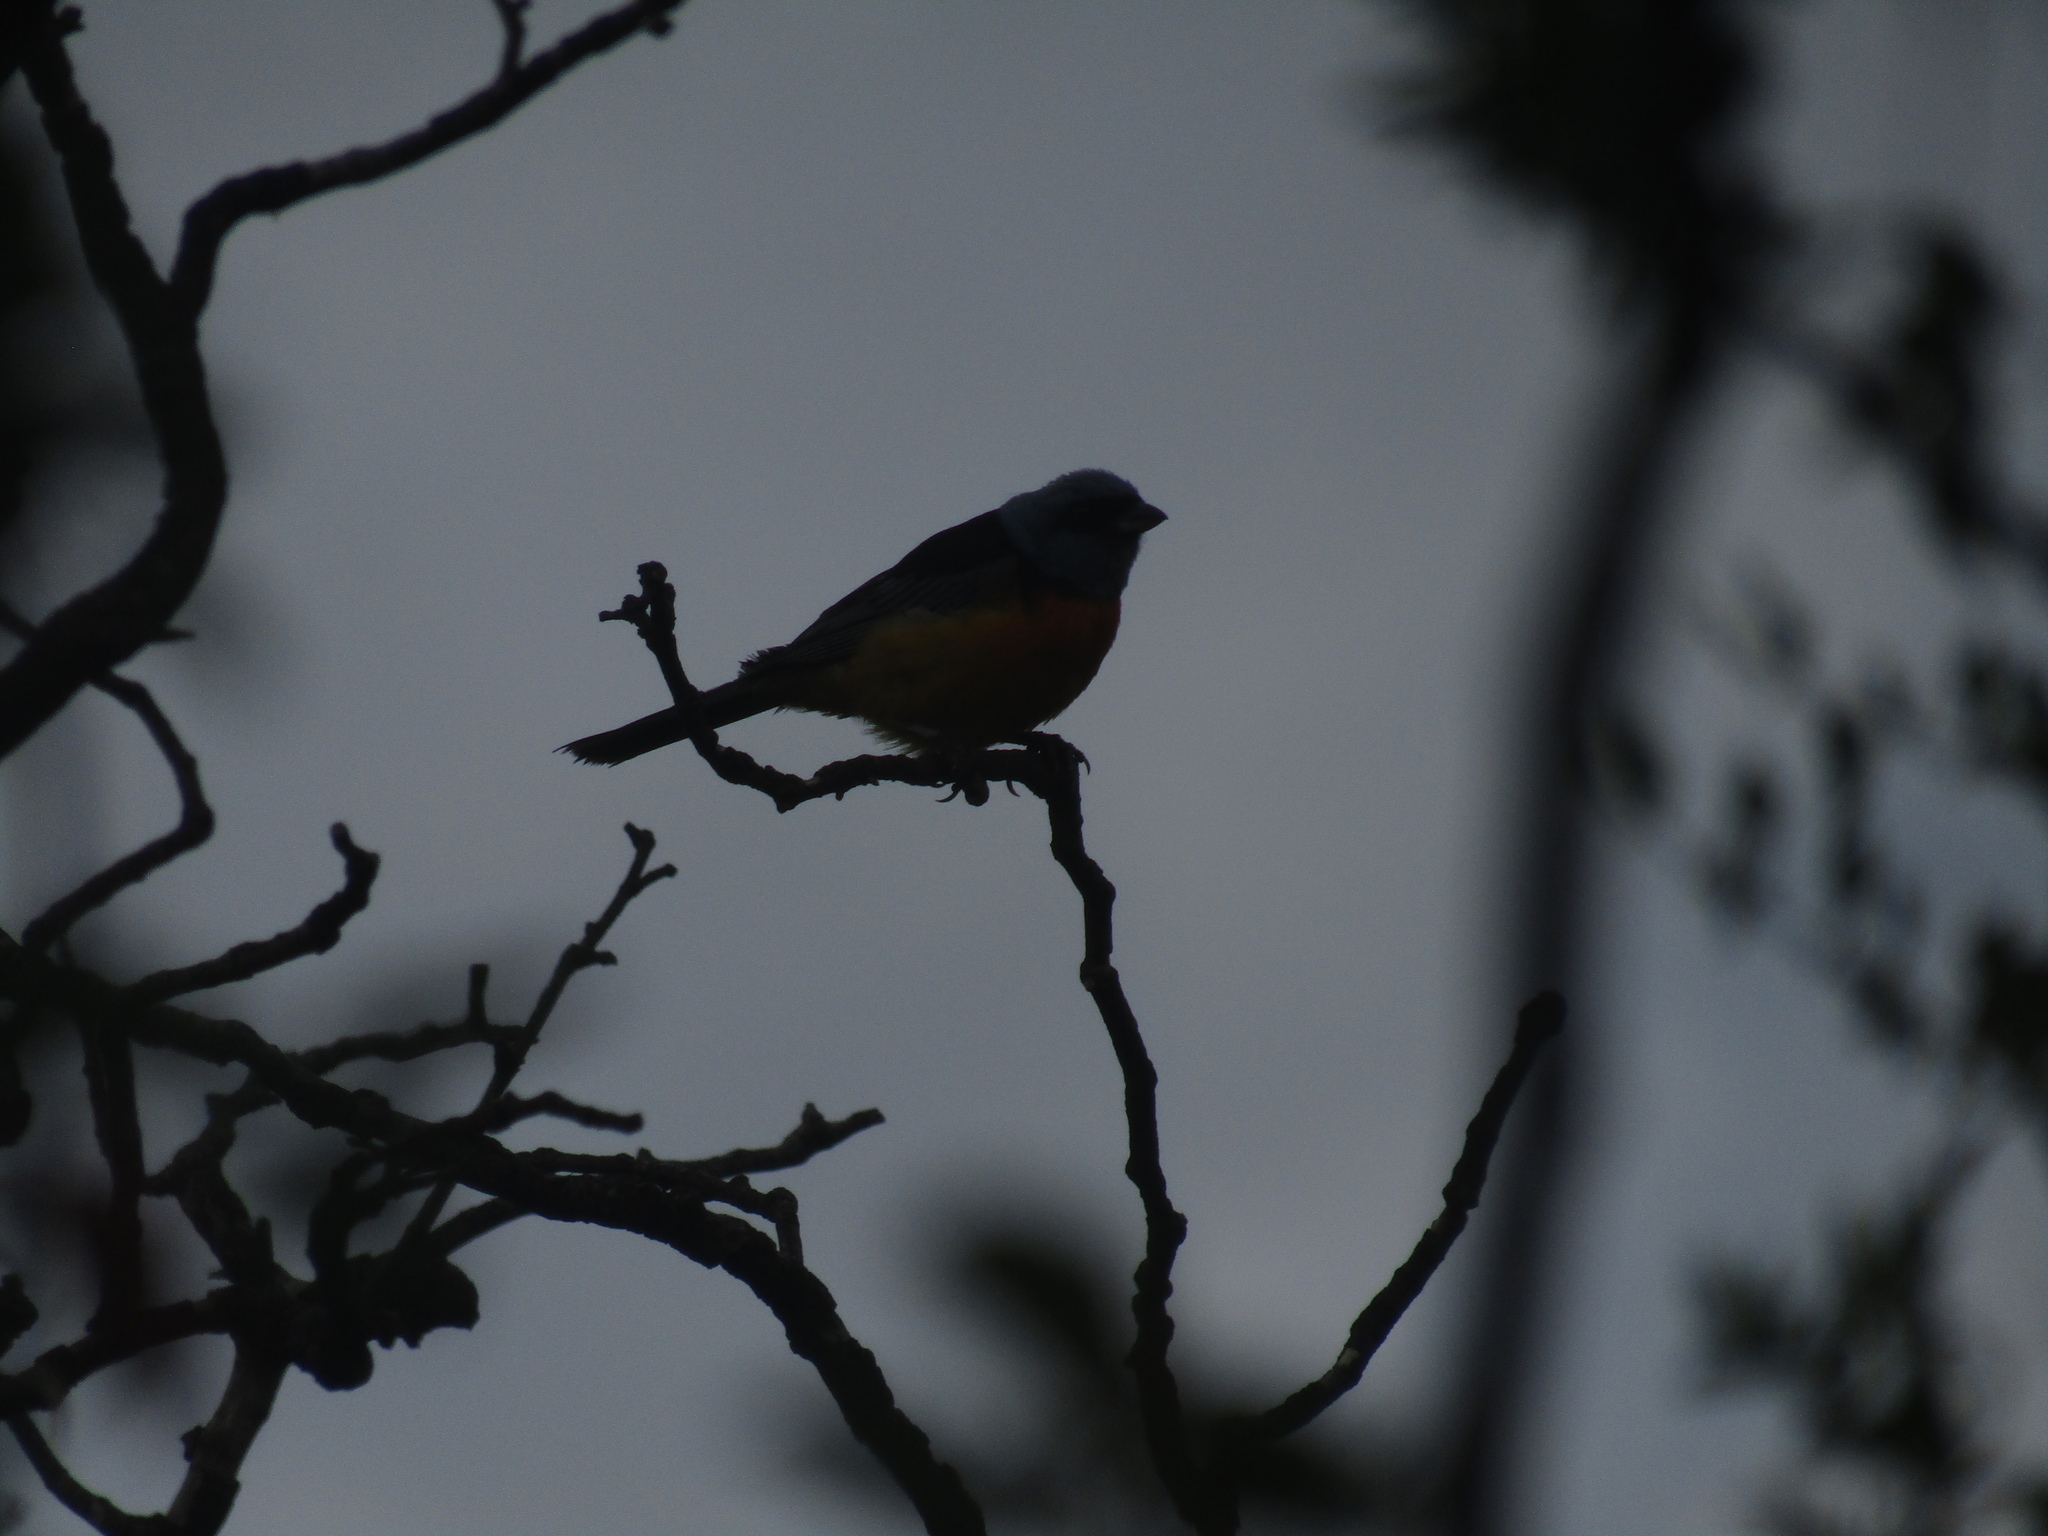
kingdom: Animalia
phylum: Chordata
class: Aves
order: Passeriformes
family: Thraupidae
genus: Rauenia
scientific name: Rauenia bonariensis
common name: Blue-and-yellow tanager
